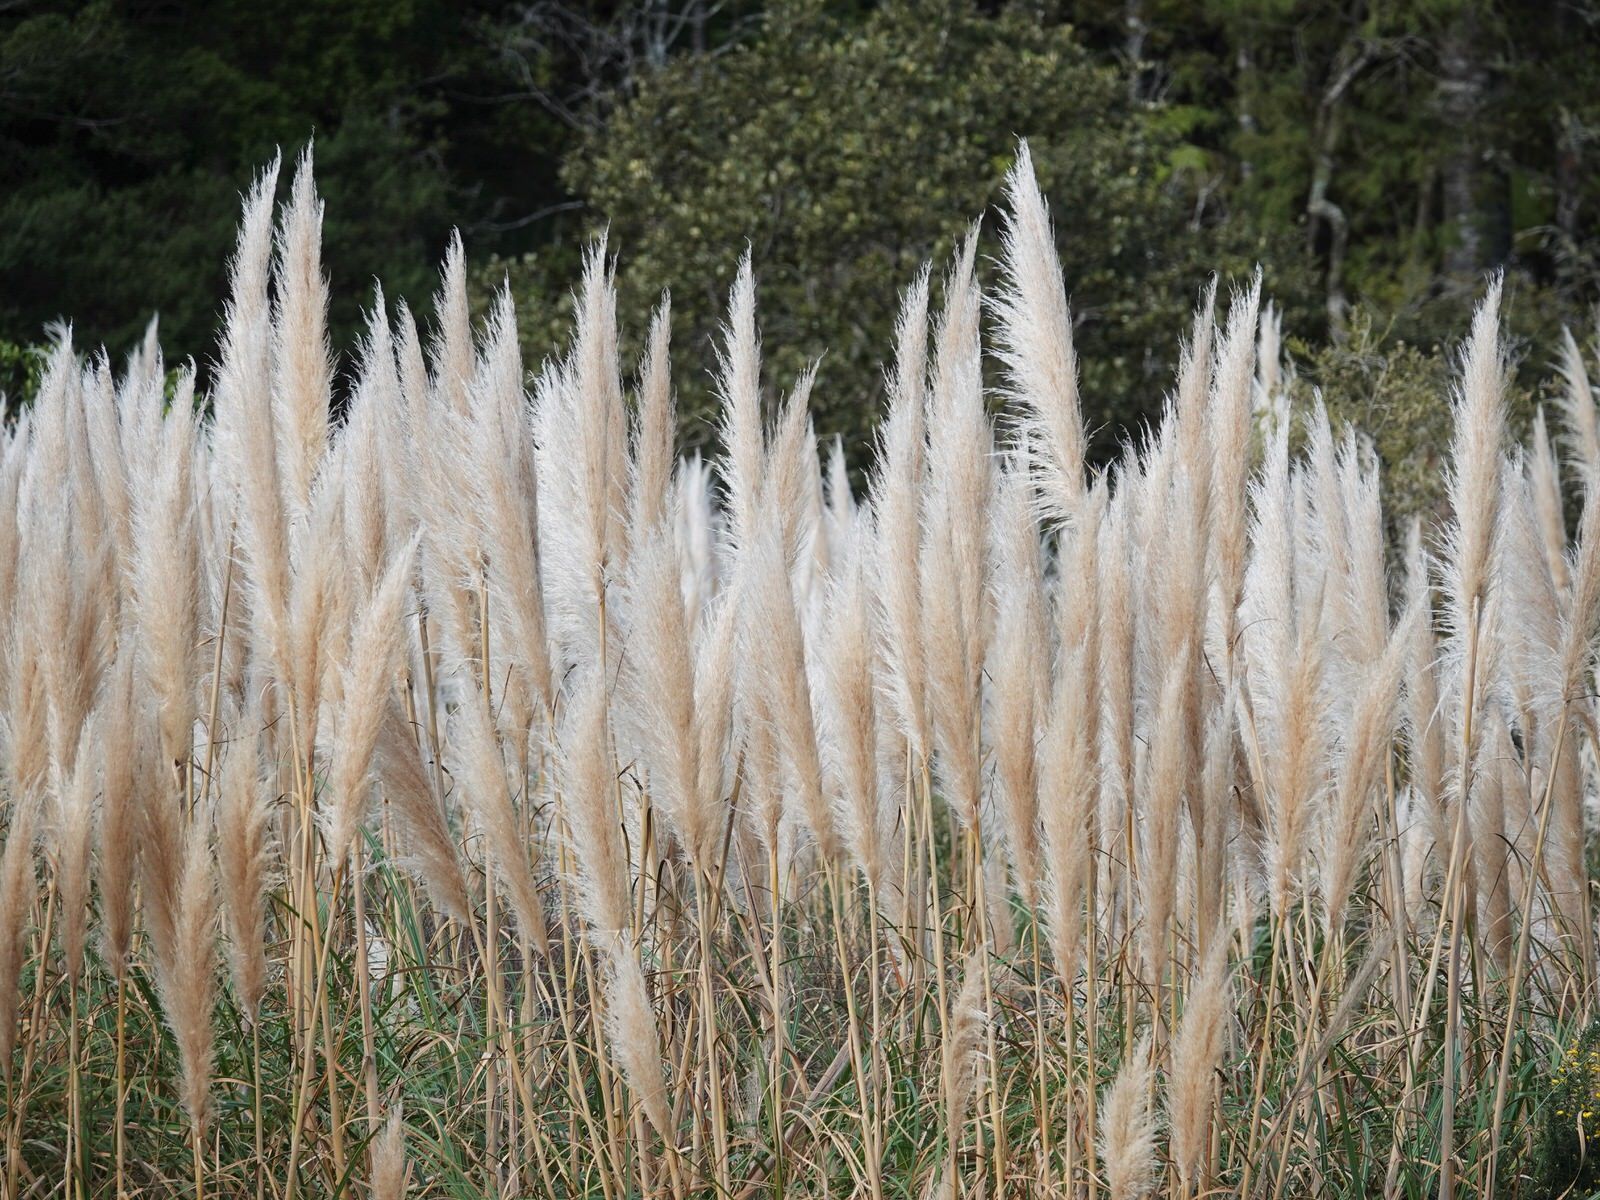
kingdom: Plantae
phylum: Tracheophyta
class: Liliopsida
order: Poales
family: Poaceae
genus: Cortaderia
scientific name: Cortaderia selloana
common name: Uruguayan pampas grass
